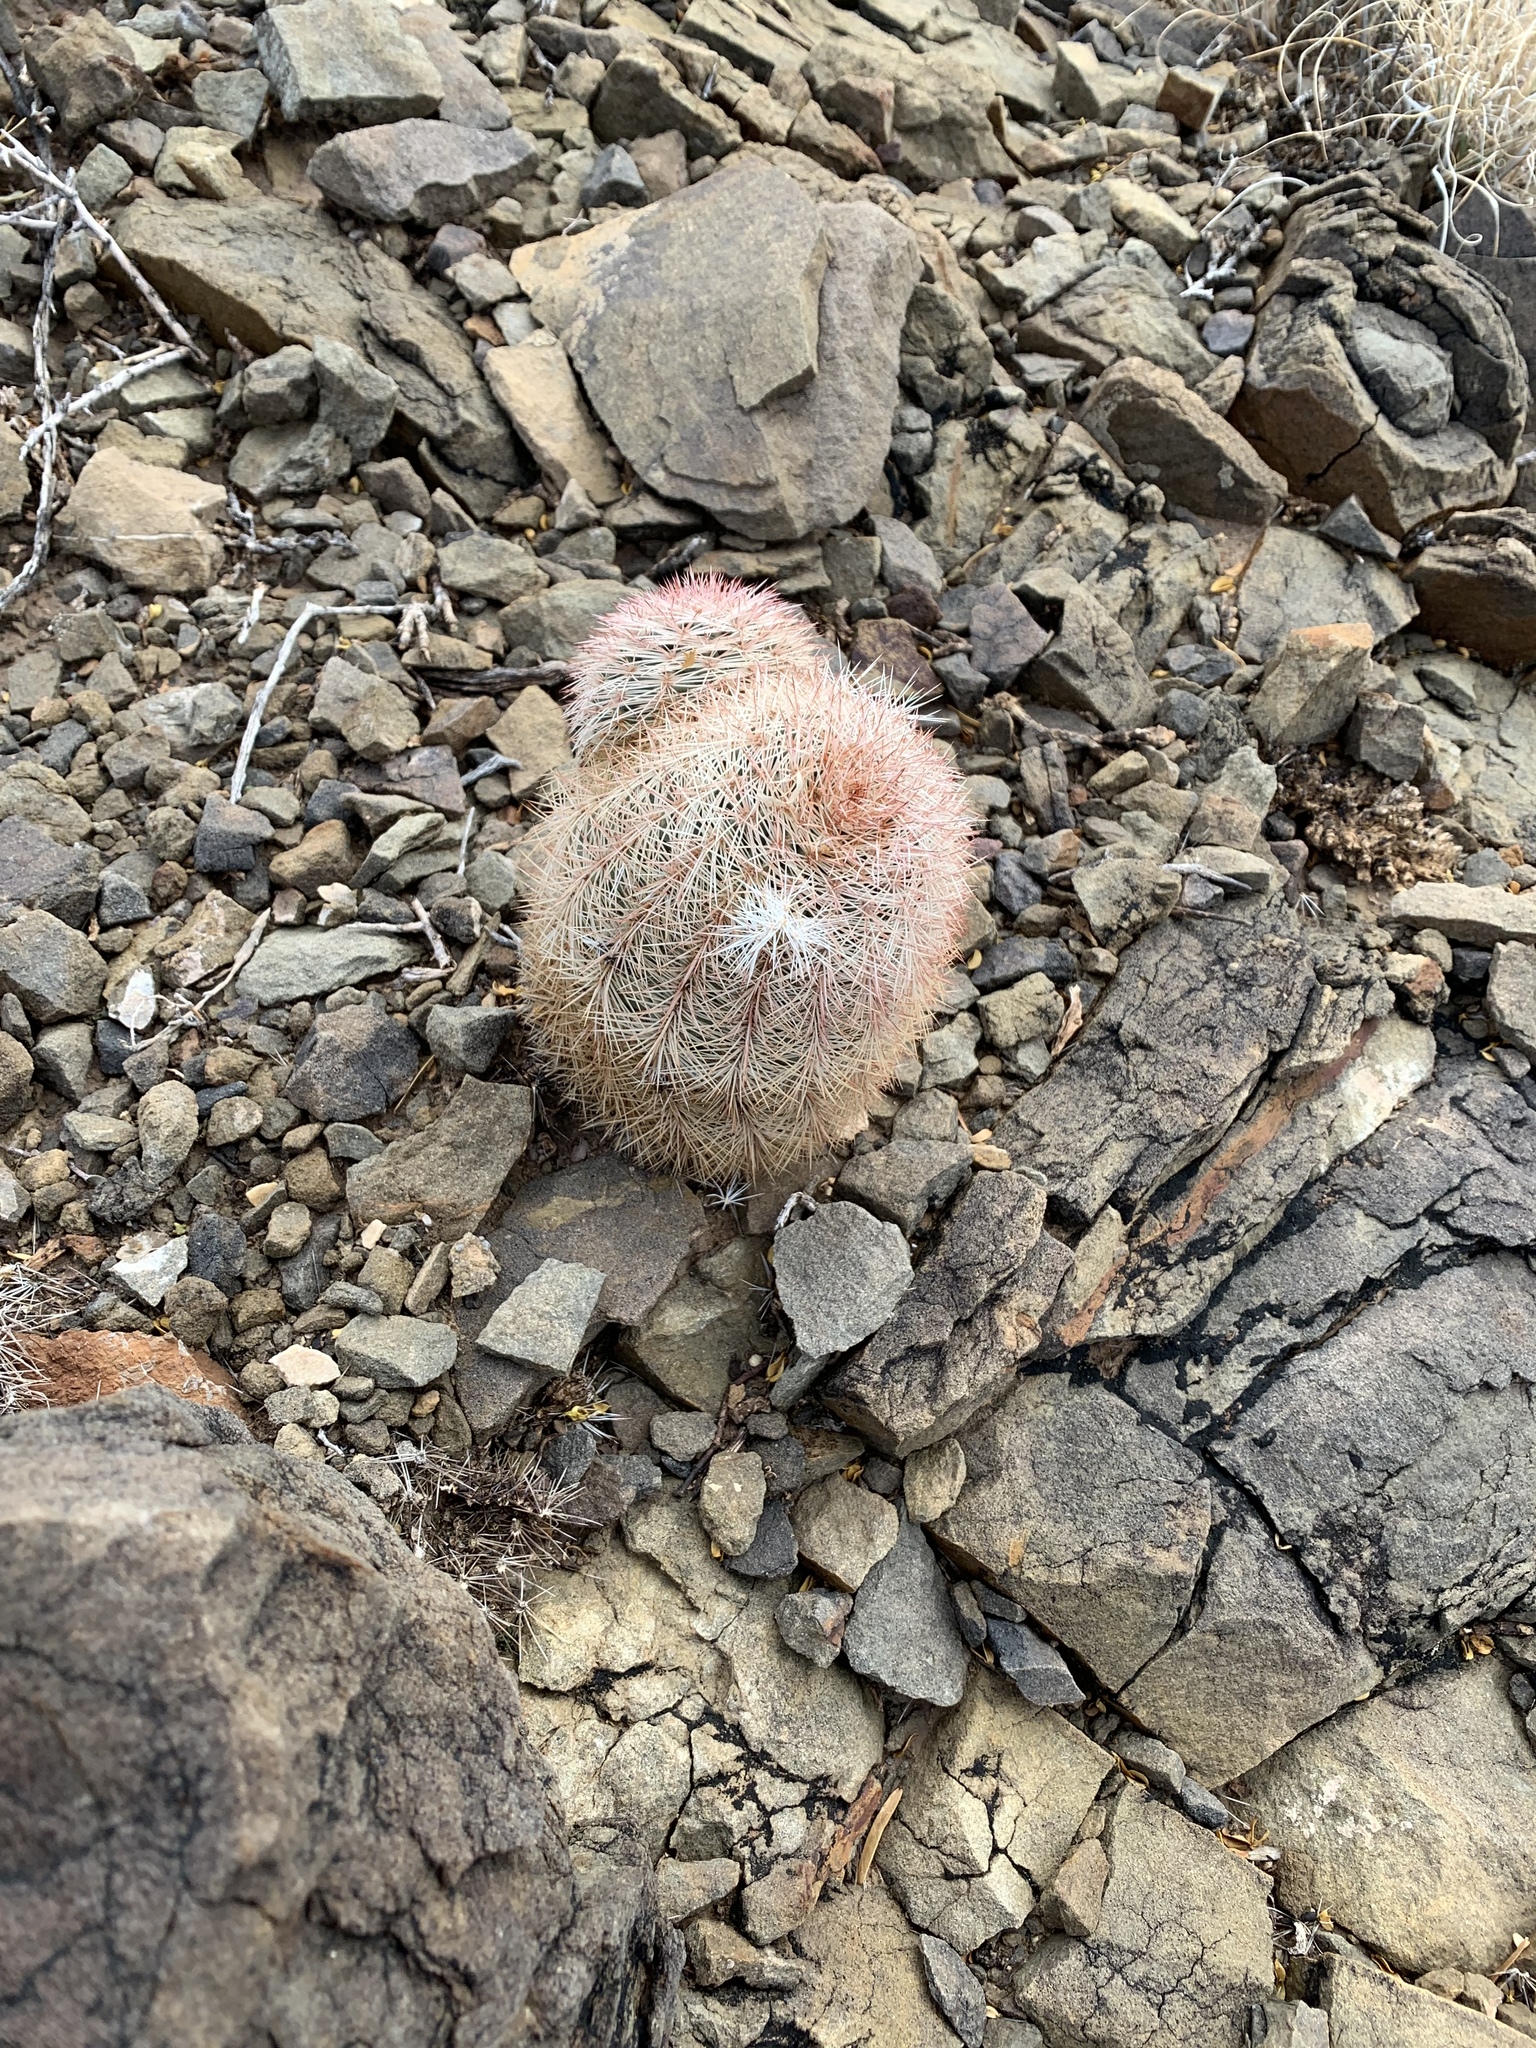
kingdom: Plantae
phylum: Tracheophyta
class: Magnoliopsida
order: Caryophyllales
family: Cactaceae
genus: Echinocereus
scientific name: Echinocereus dasyacanthus
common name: Spiny hedgehog cactus
